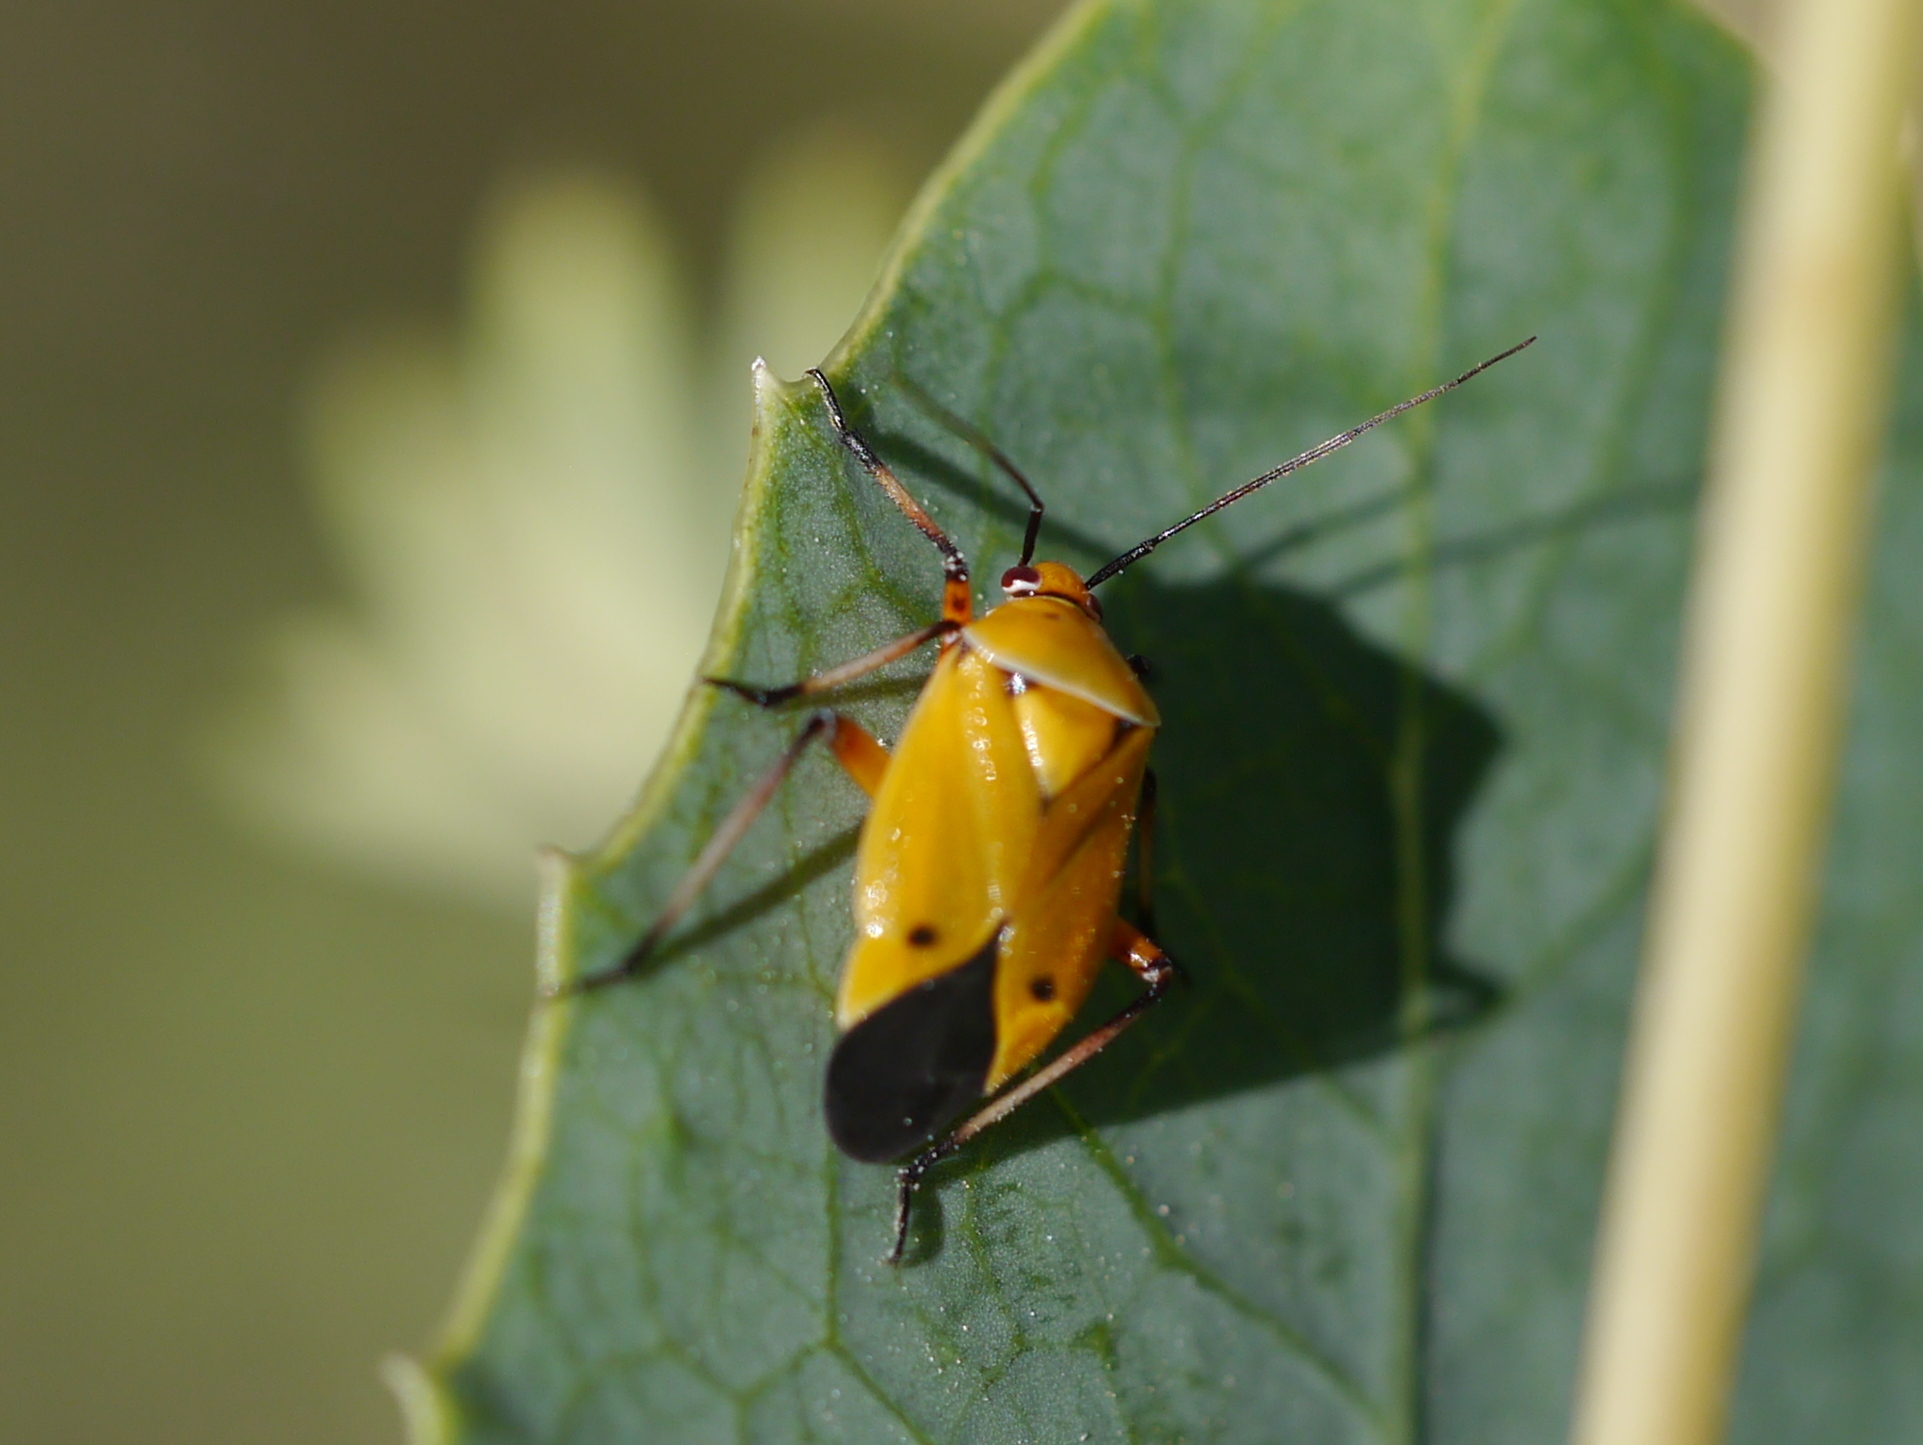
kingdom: Animalia
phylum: Arthropoda
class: Insecta
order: Hemiptera
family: Miridae
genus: Neocapsus
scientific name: Neocapsus fasciativentris
